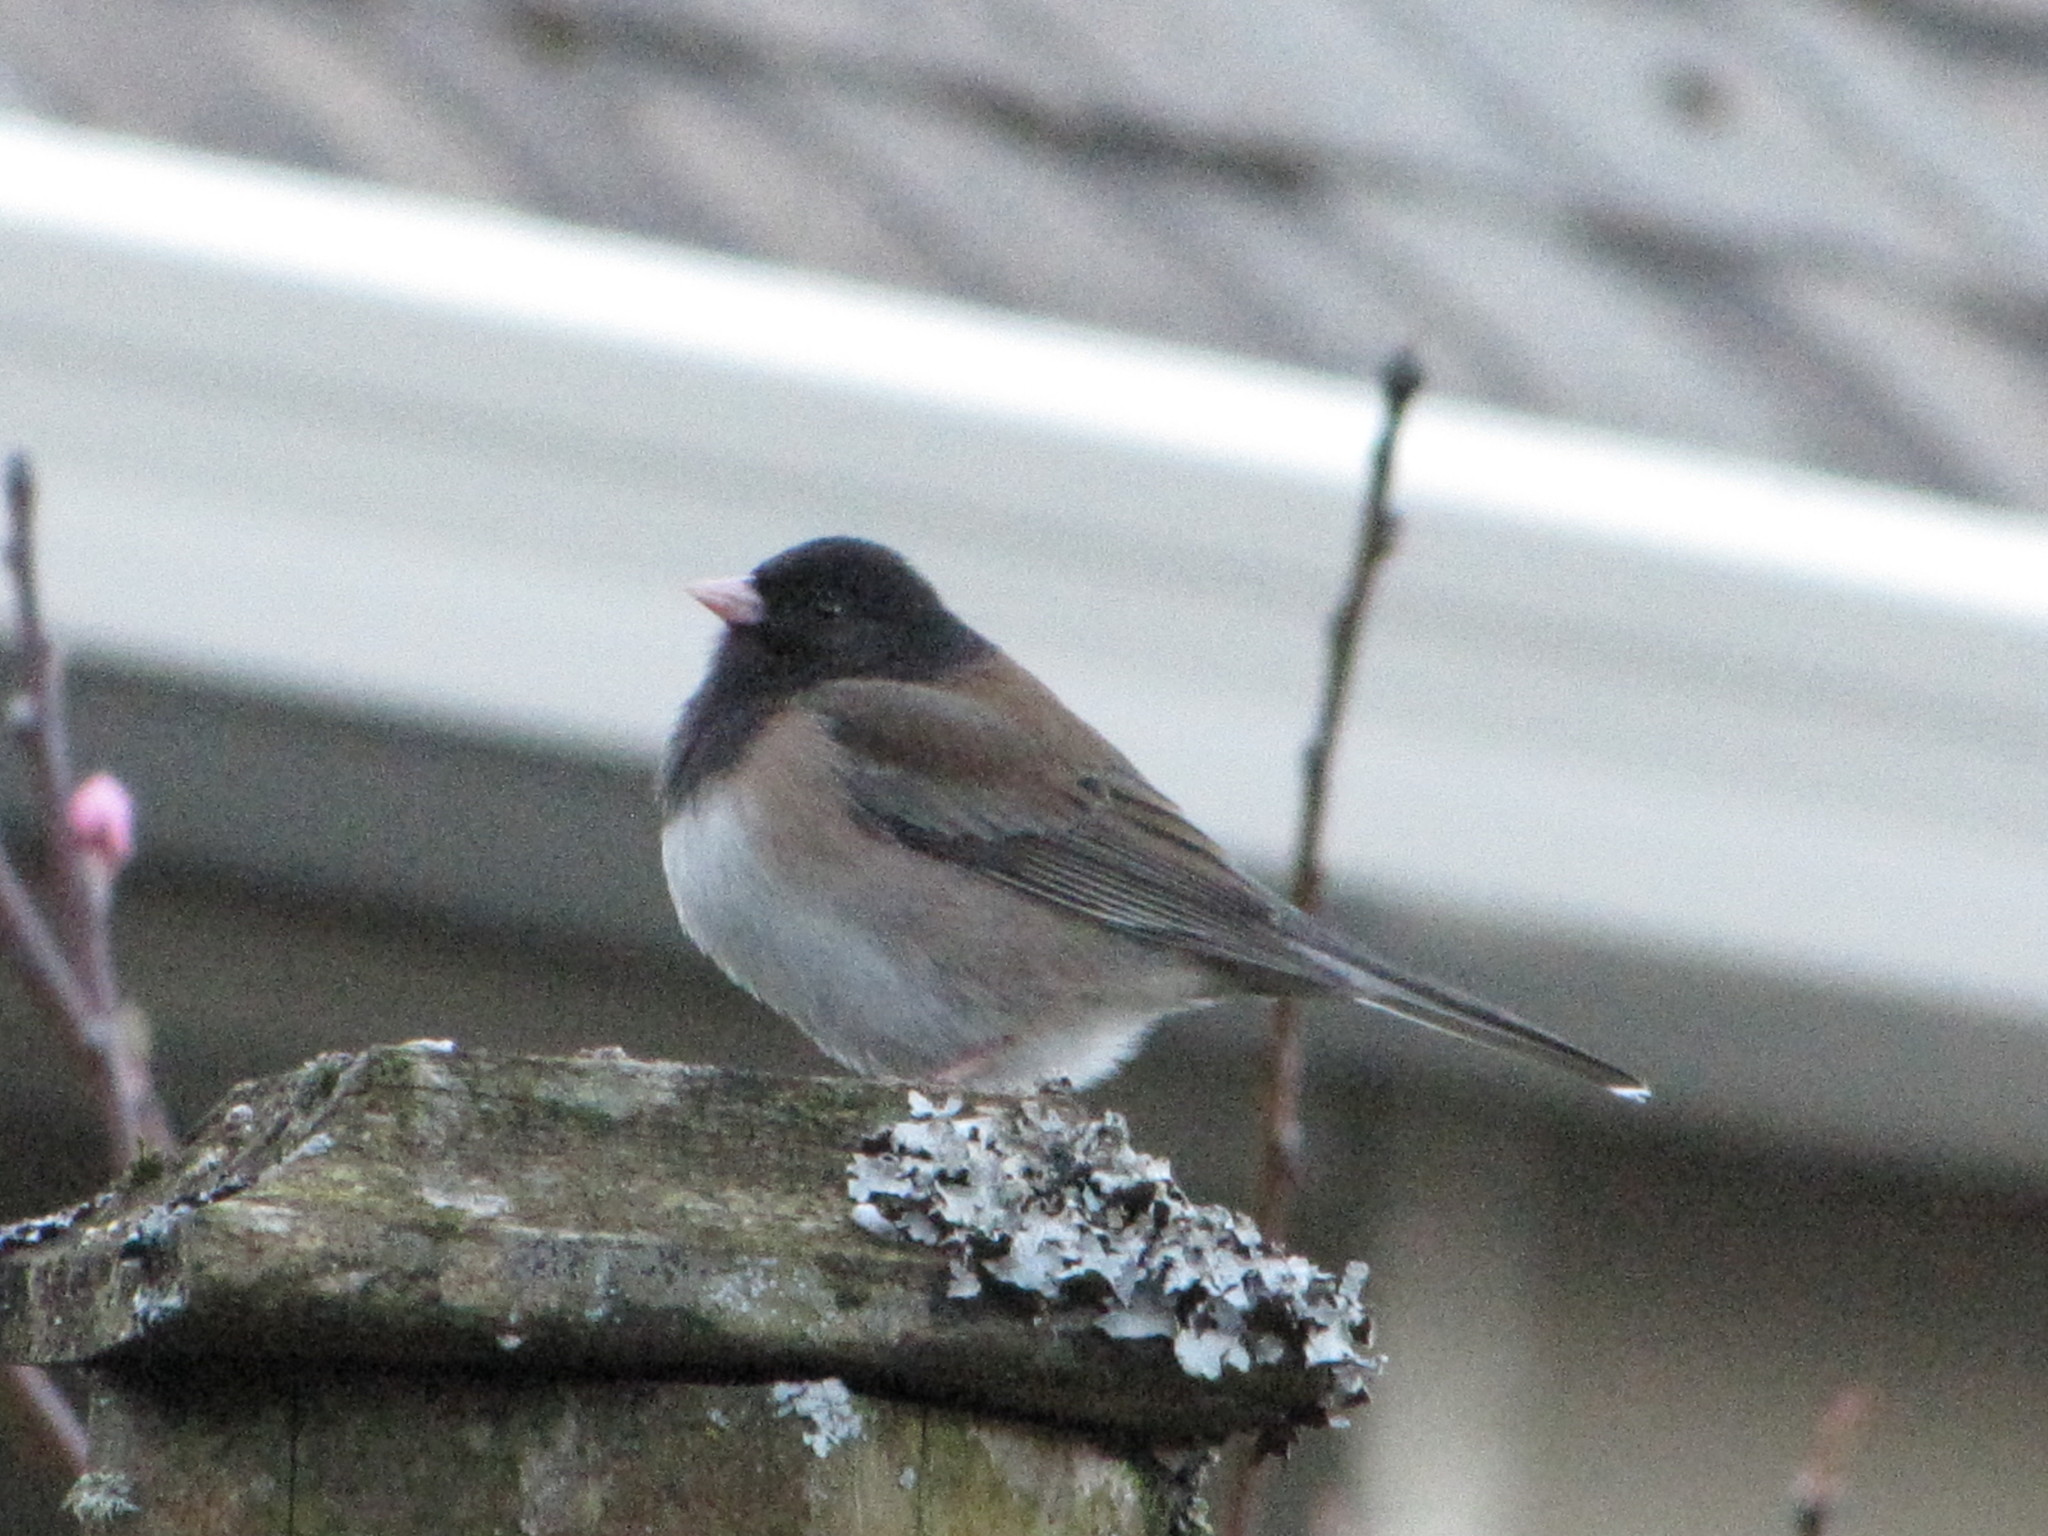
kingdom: Animalia
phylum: Chordata
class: Aves
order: Passeriformes
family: Passerellidae
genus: Junco
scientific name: Junco hyemalis
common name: Dark-eyed junco
